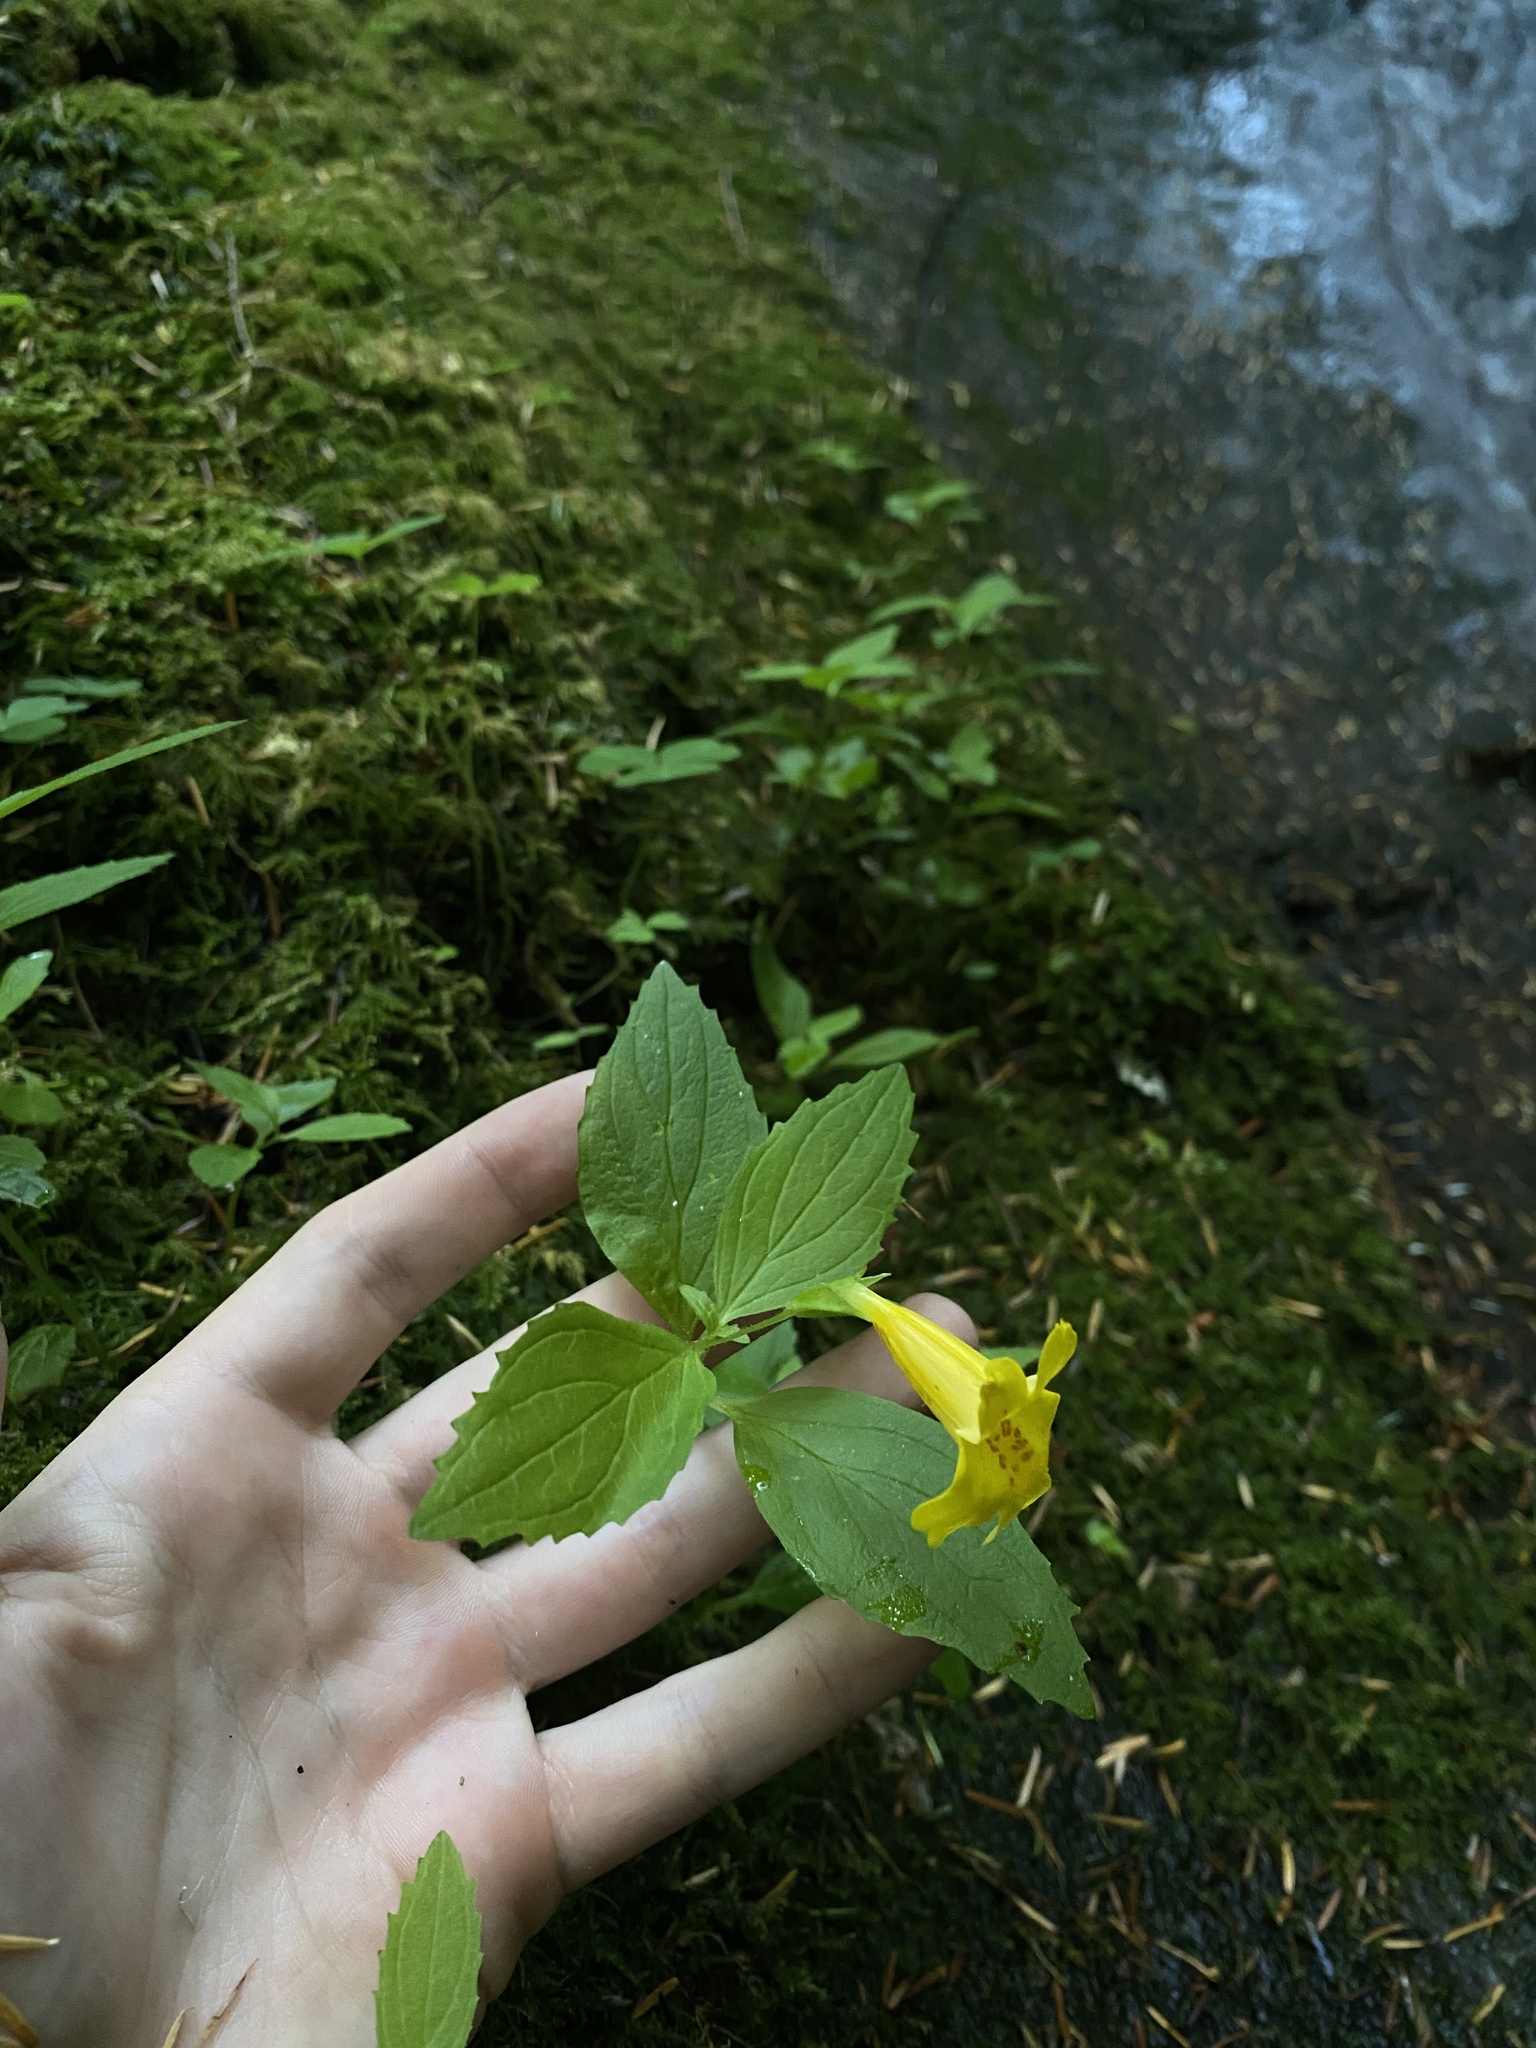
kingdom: Plantae
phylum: Tracheophyta
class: Magnoliopsida
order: Lamiales
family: Phrymaceae
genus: Erythranthe
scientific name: Erythranthe dentata
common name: Coastal monkeyflower
